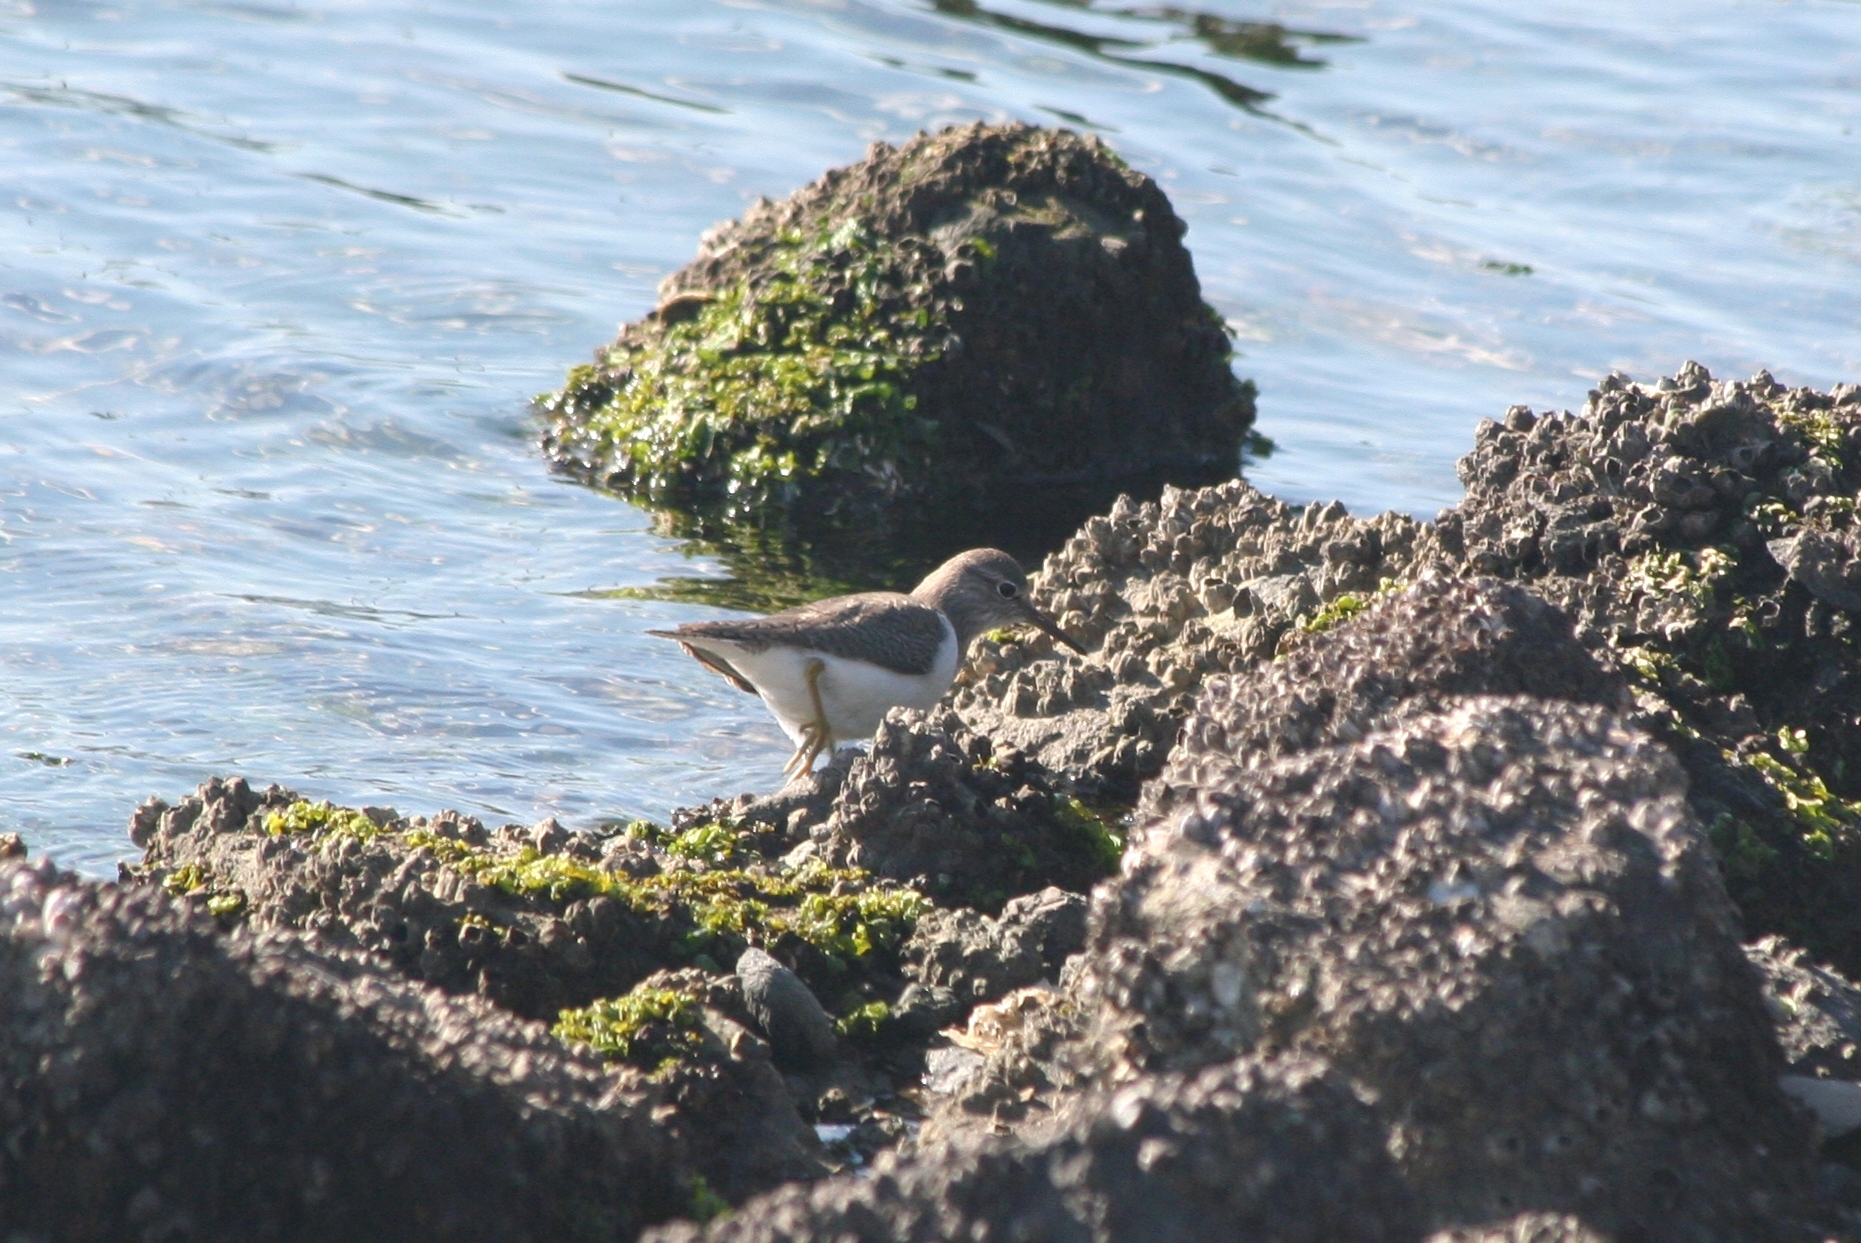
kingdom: Animalia
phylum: Chordata
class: Aves
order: Charadriiformes
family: Scolopacidae
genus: Actitis
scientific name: Actitis hypoleucos
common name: Common sandpiper
